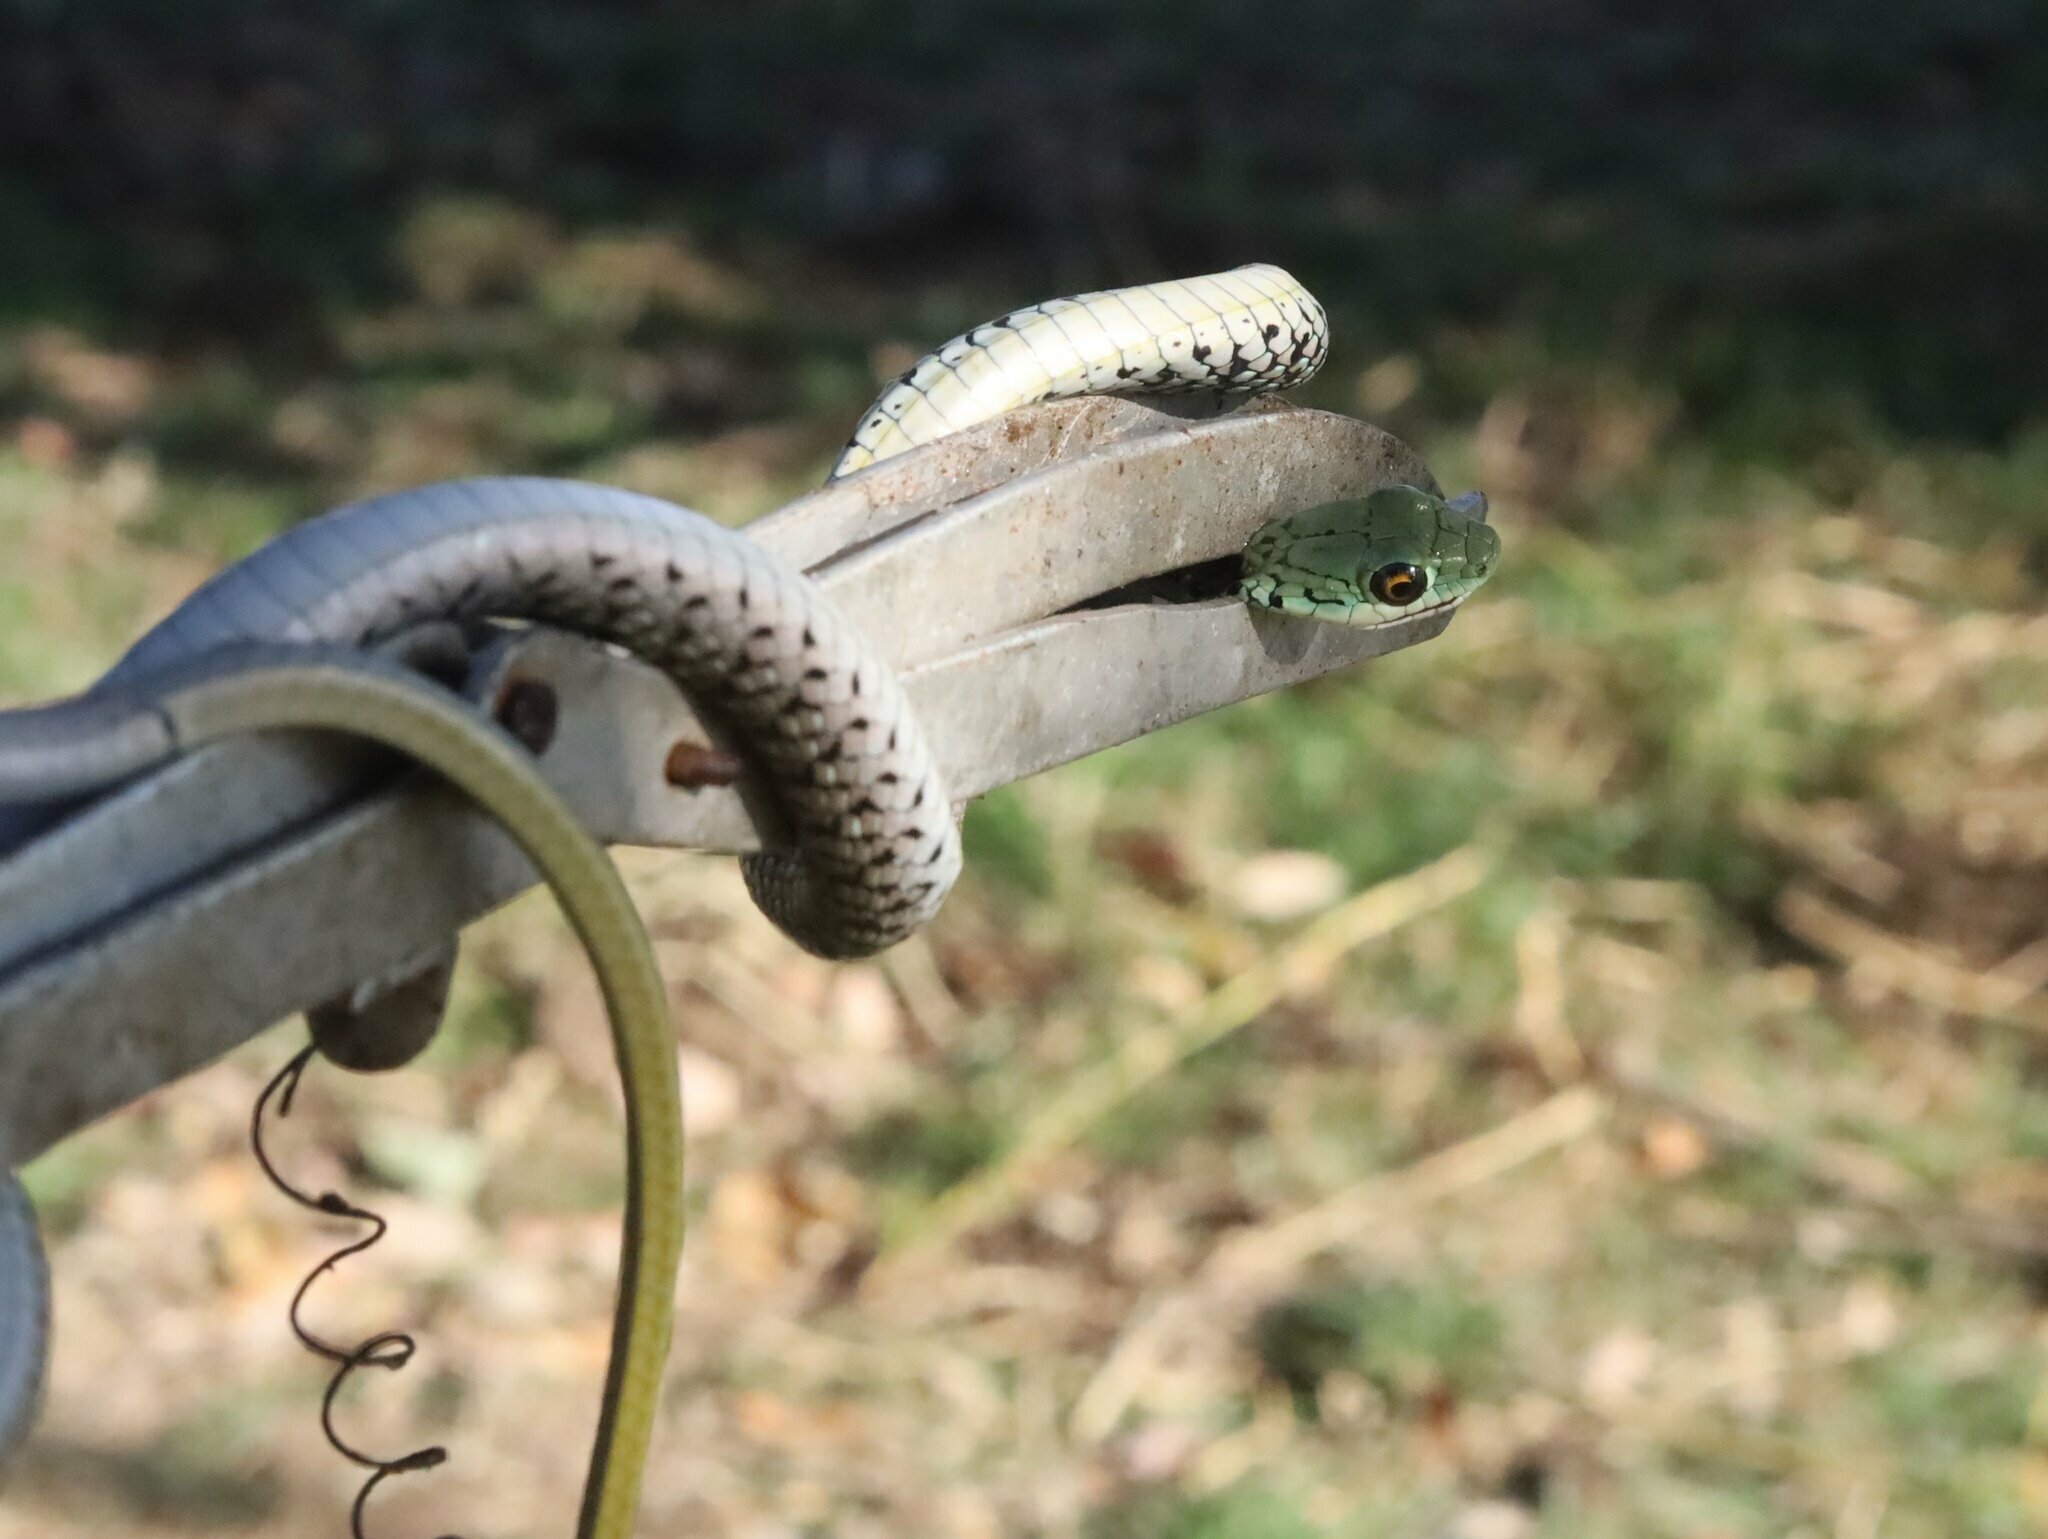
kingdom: Animalia
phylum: Chordata
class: Squamata
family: Colubridae
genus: Philothamnus
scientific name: Philothamnus semivariegatus
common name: Spotted bush snake
